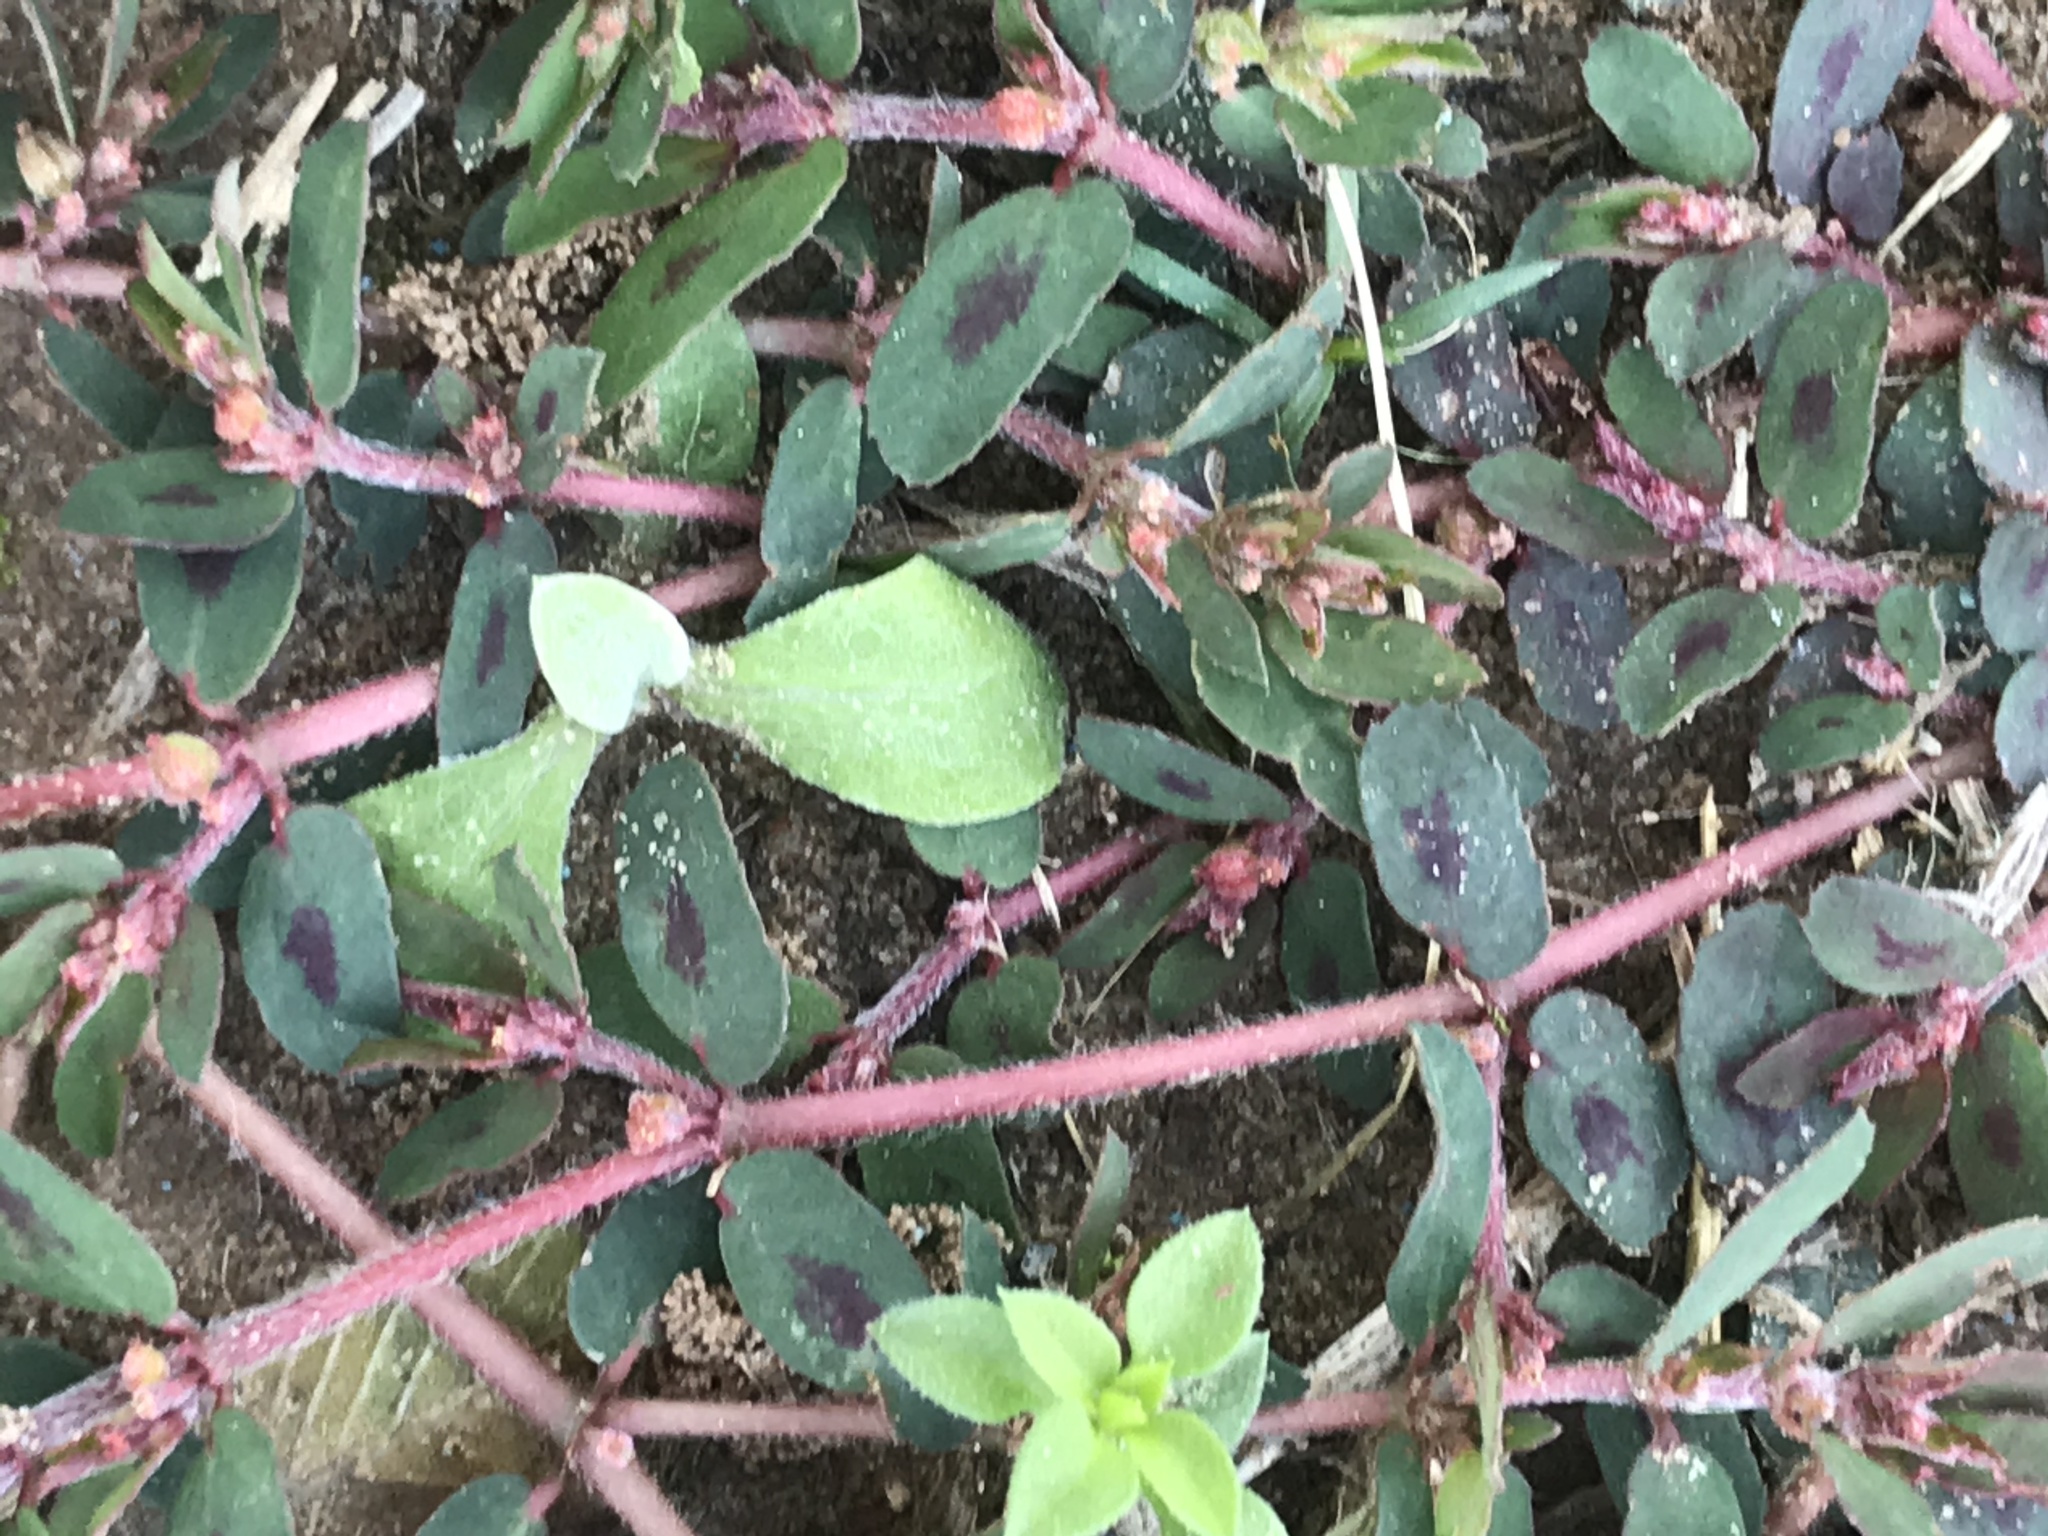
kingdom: Plantae
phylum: Tracheophyta
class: Magnoliopsida
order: Malpighiales
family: Euphorbiaceae
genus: Euphorbia
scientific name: Euphorbia maculata
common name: Spotted spurge
